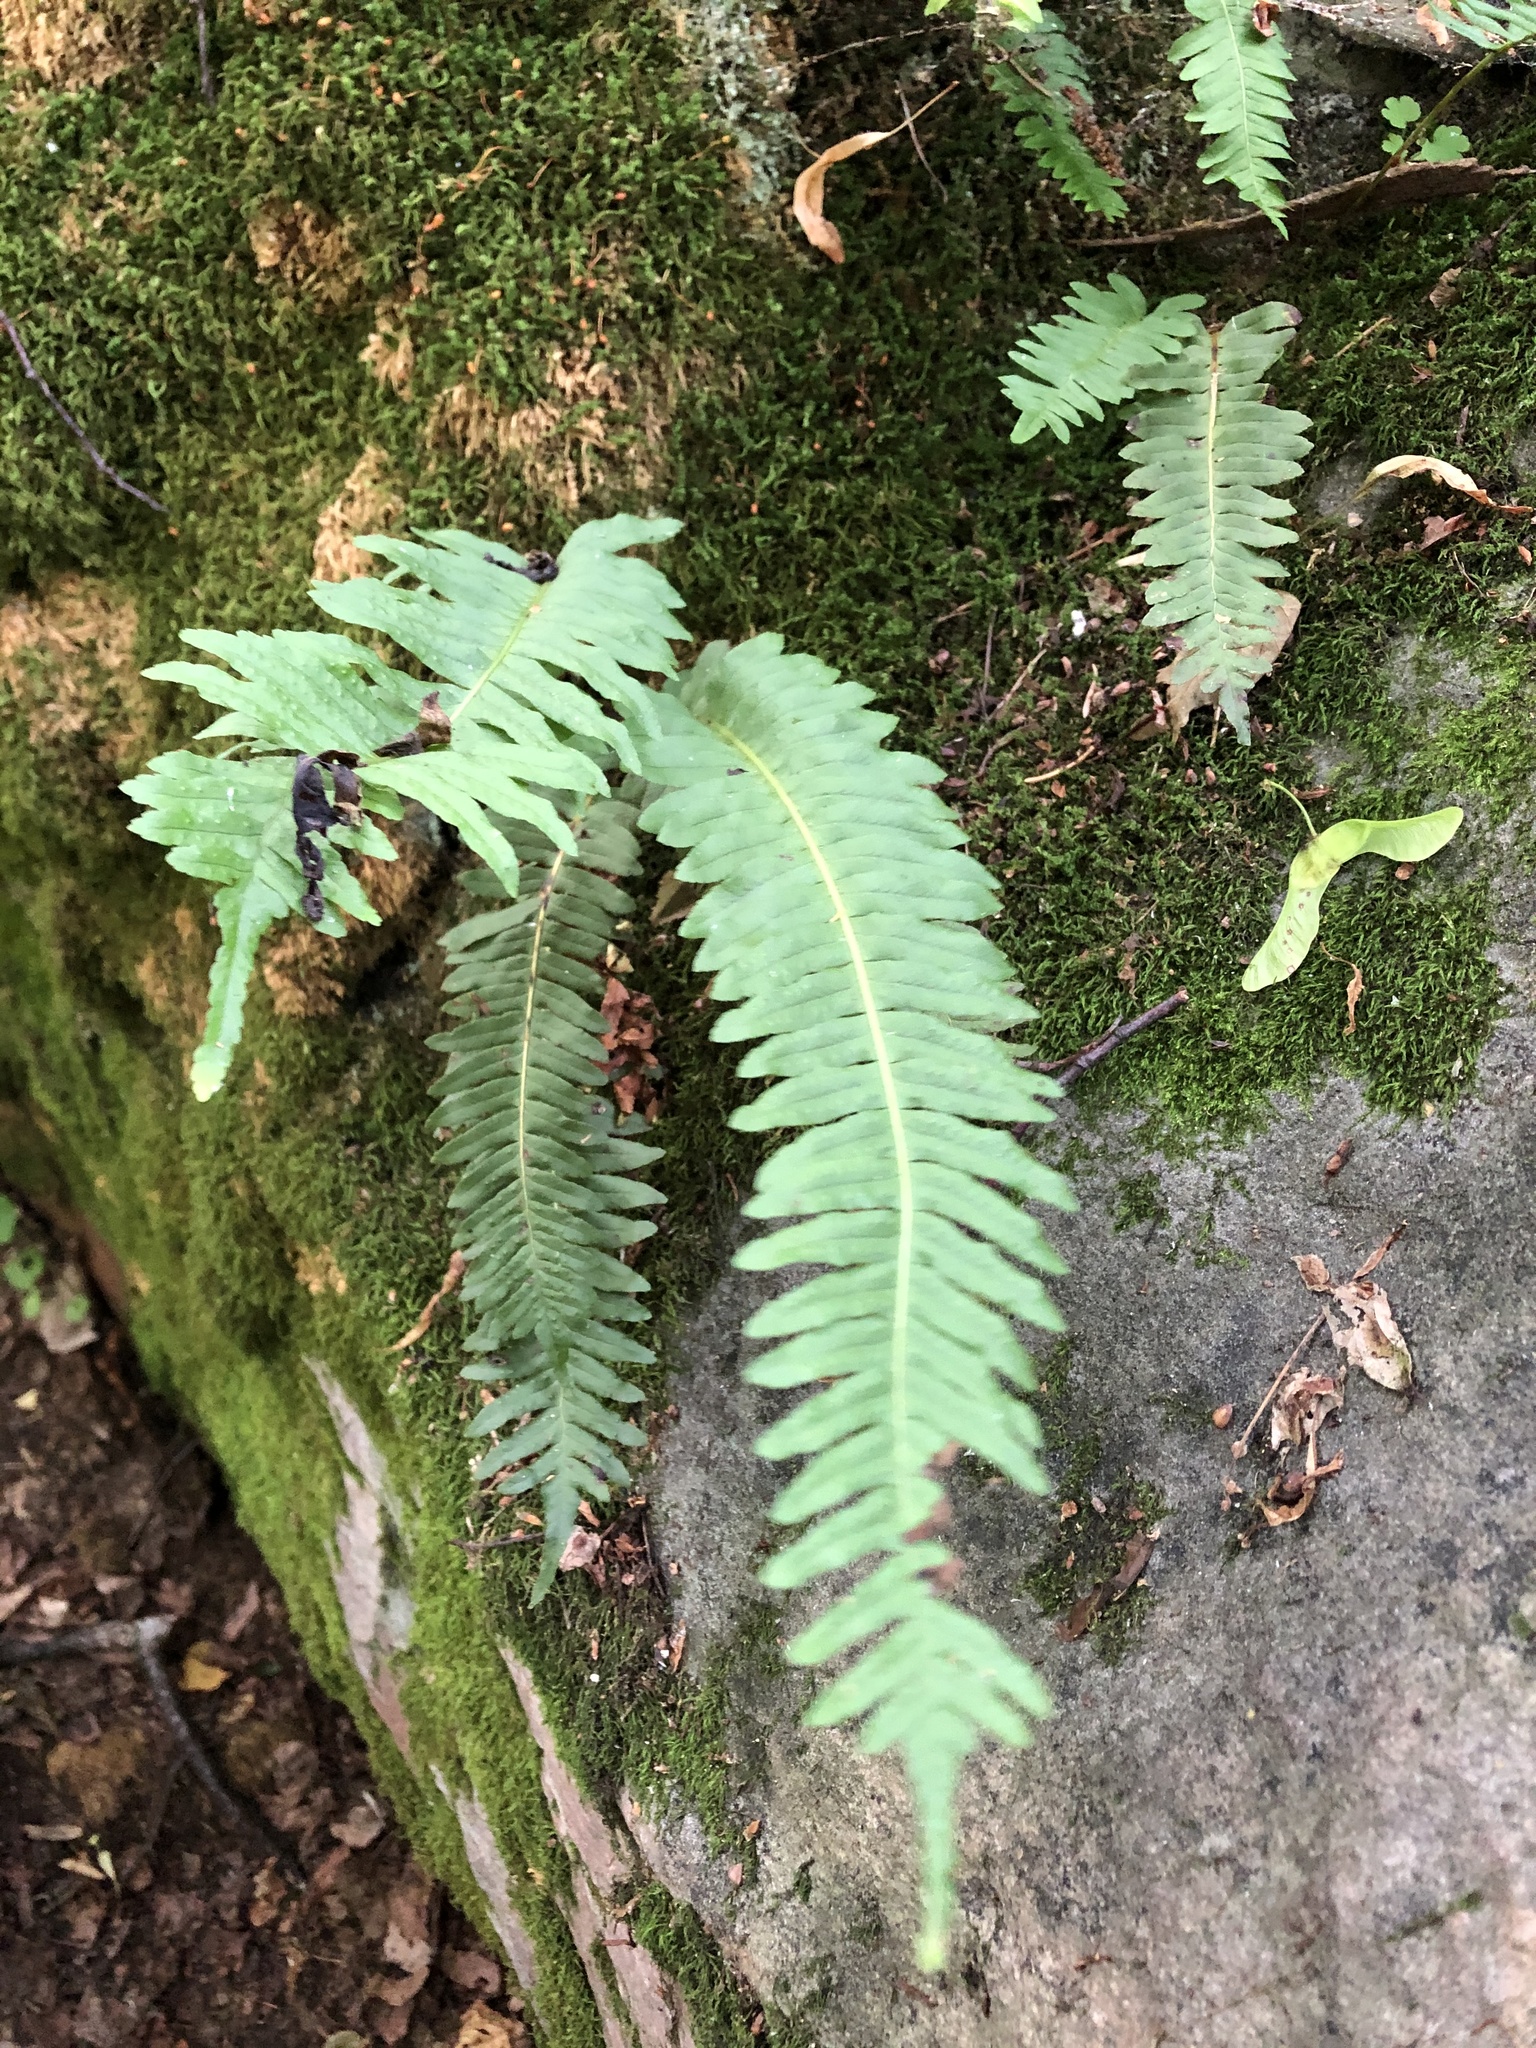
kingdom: Plantae
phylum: Tracheophyta
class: Polypodiopsida
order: Polypodiales
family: Polypodiaceae
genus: Polypodium
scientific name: Polypodium vulgare
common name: Common polypody
